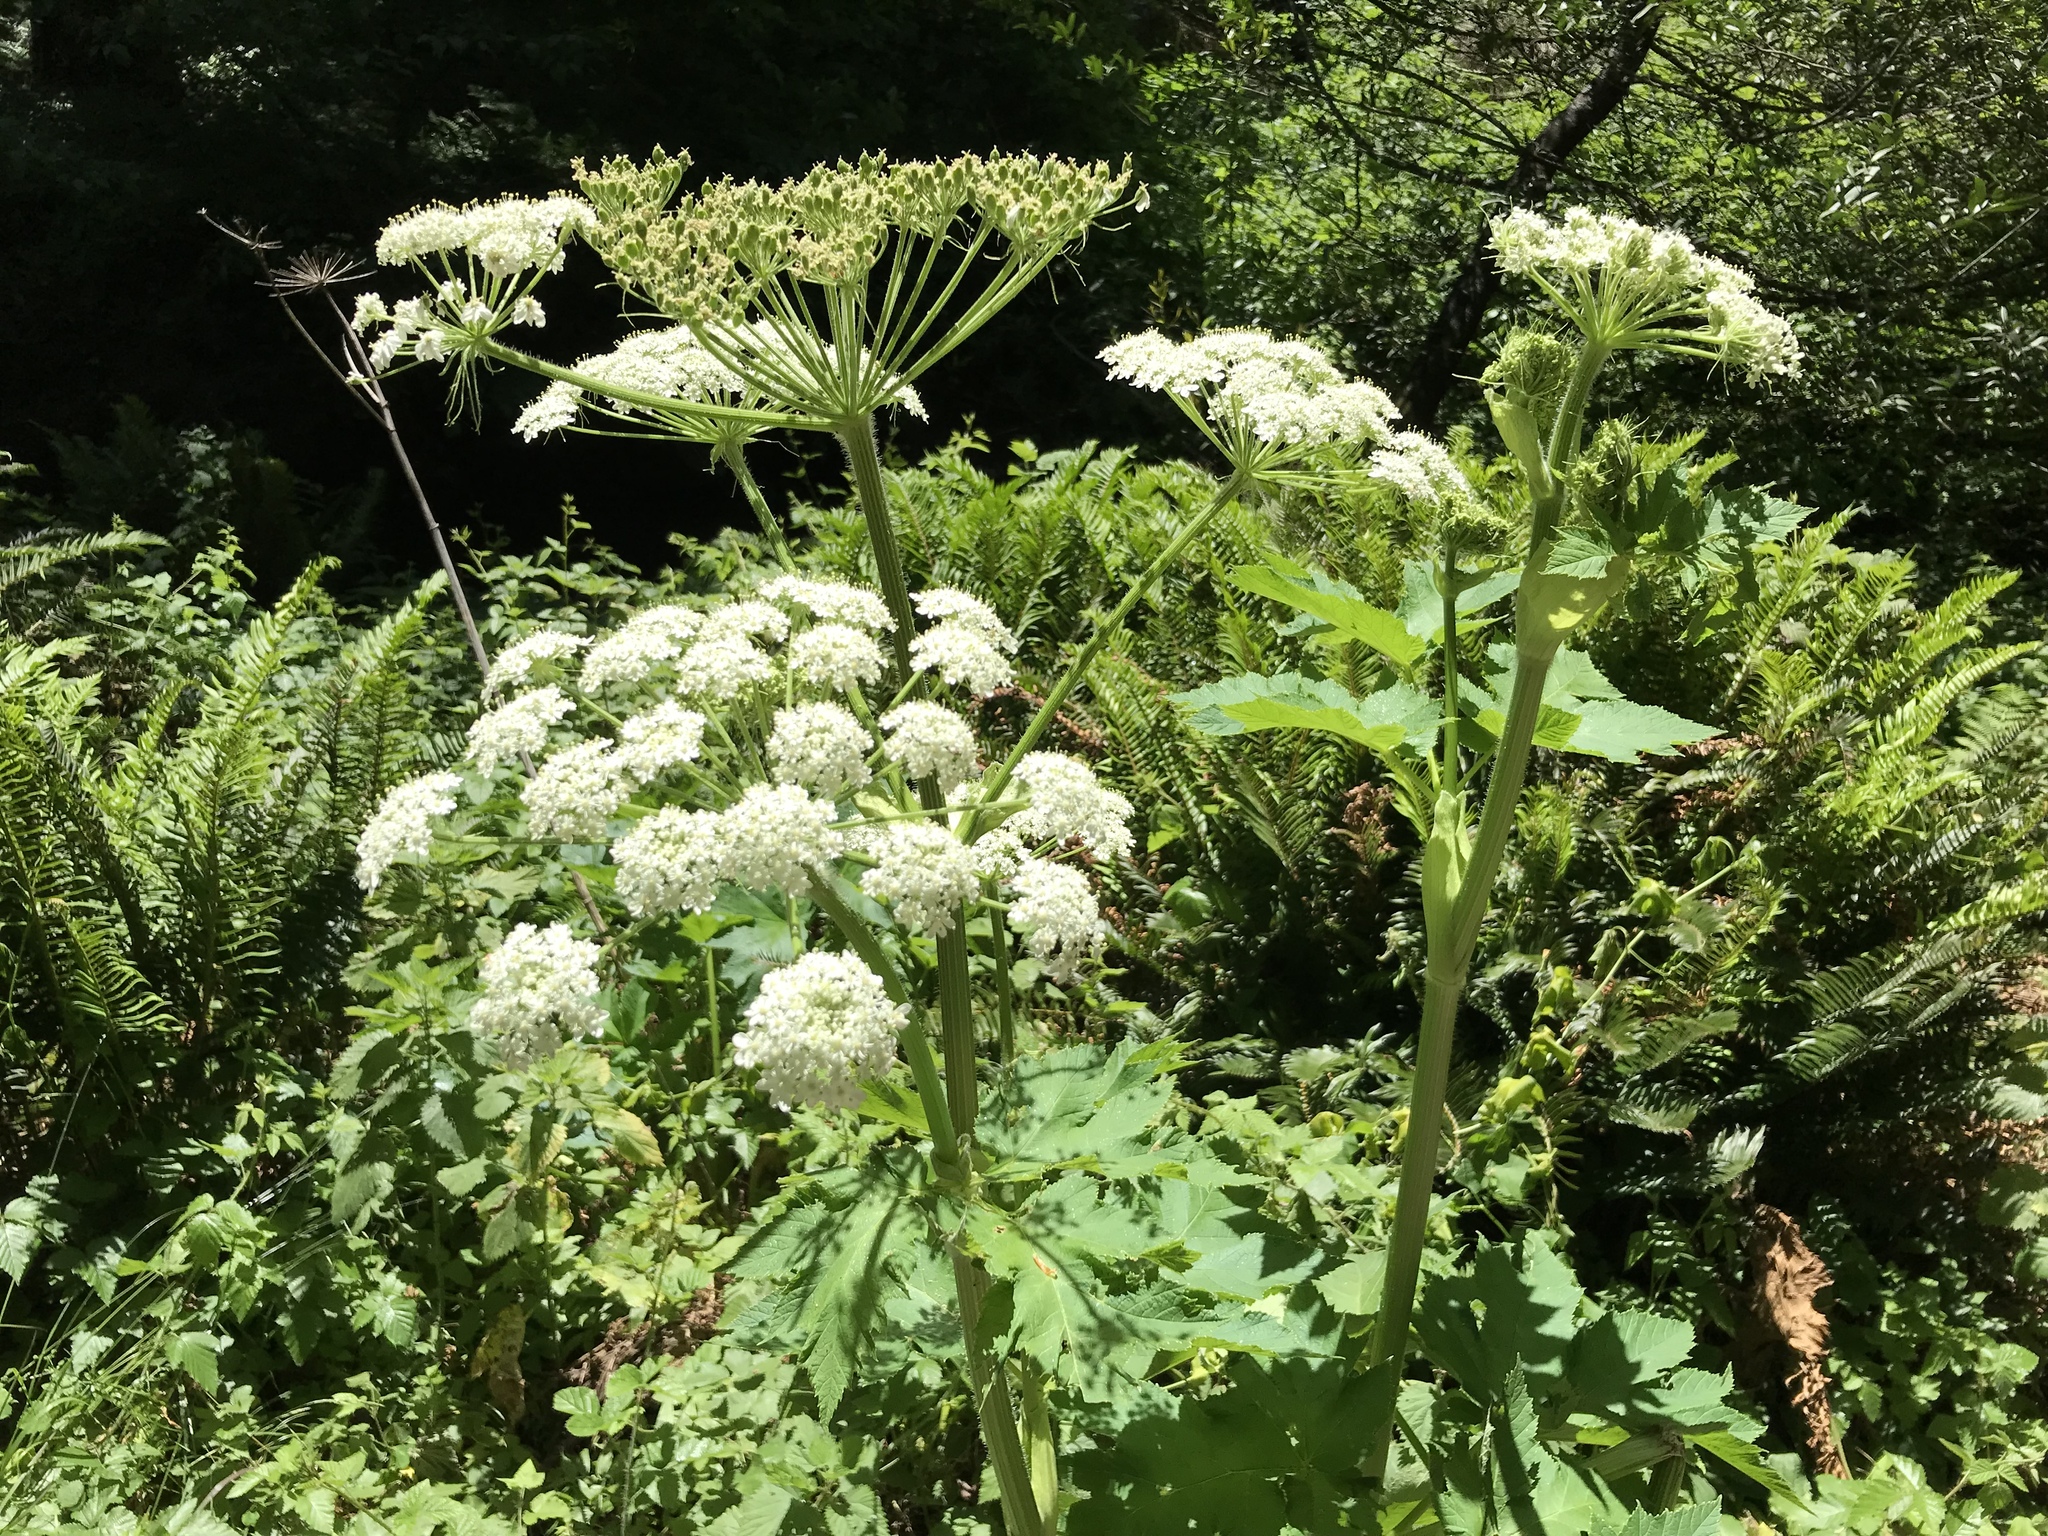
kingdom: Plantae
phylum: Tracheophyta
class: Magnoliopsida
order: Apiales
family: Apiaceae
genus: Heracleum
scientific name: Heracleum maximum
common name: American cow parsnip
